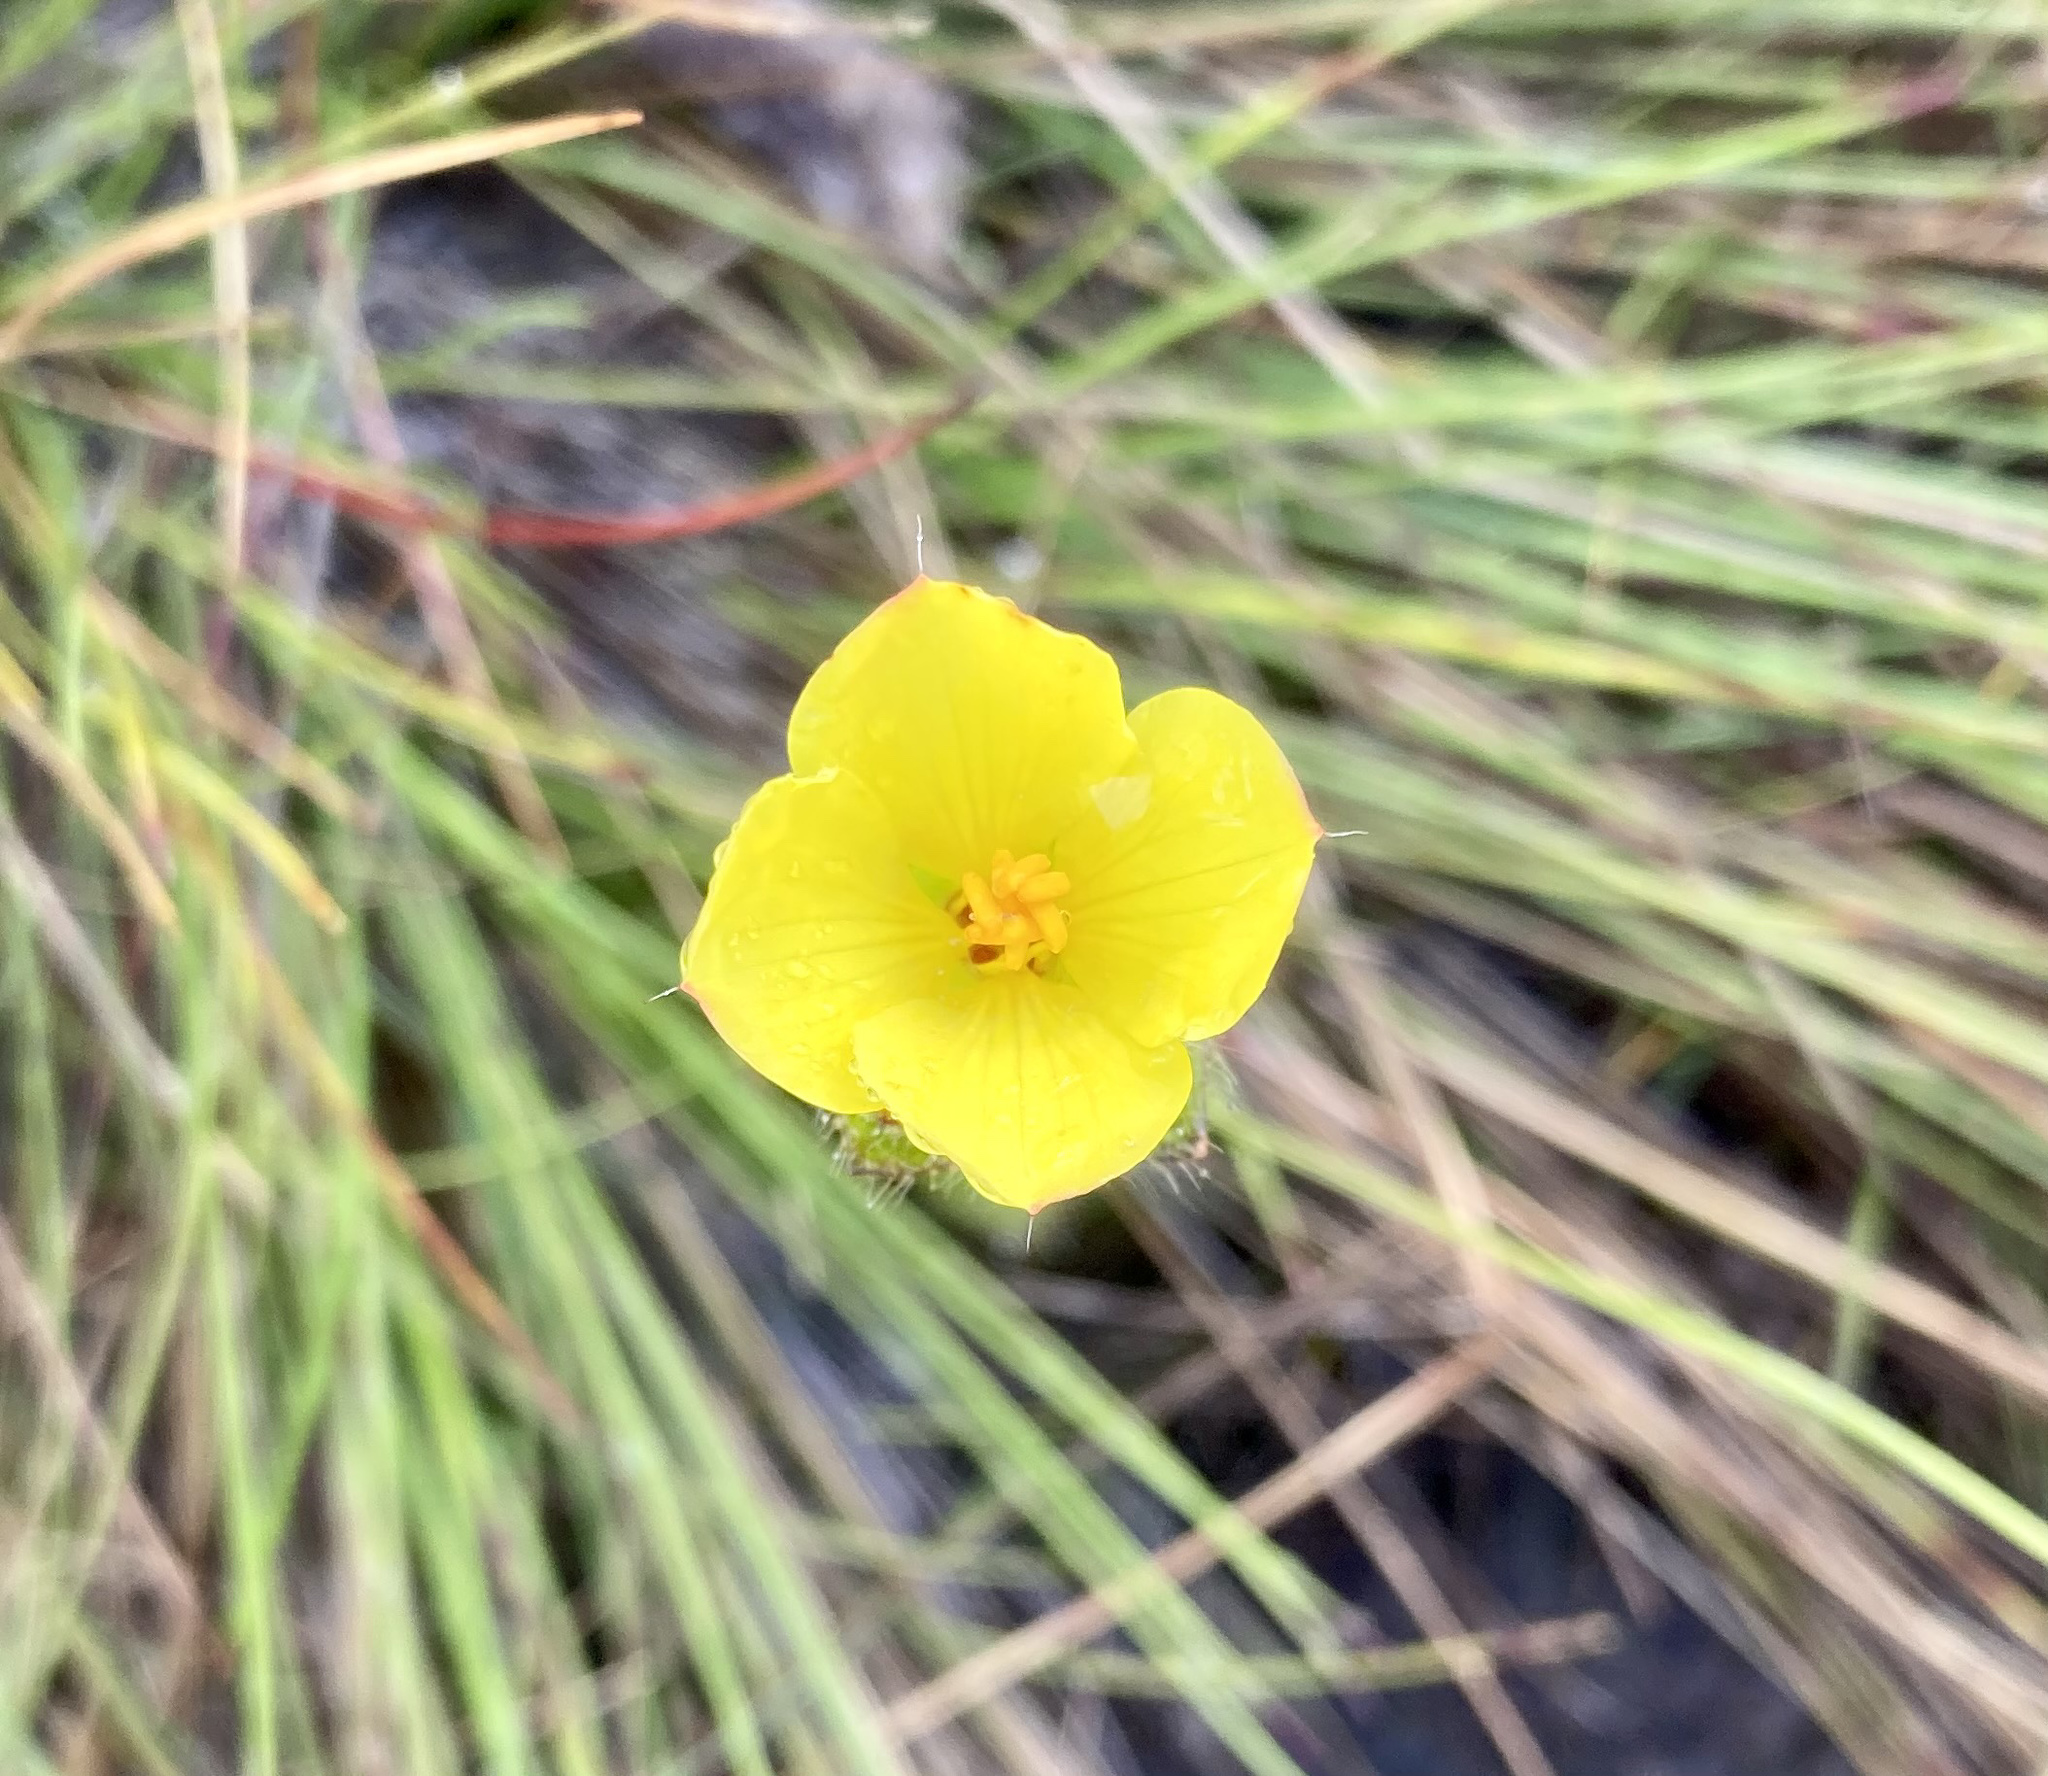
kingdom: Plantae
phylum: Tracheophyta
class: Magnoliopsida
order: Myrtales
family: Melastomataceae
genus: Castratella
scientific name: Castratella piloselloides
